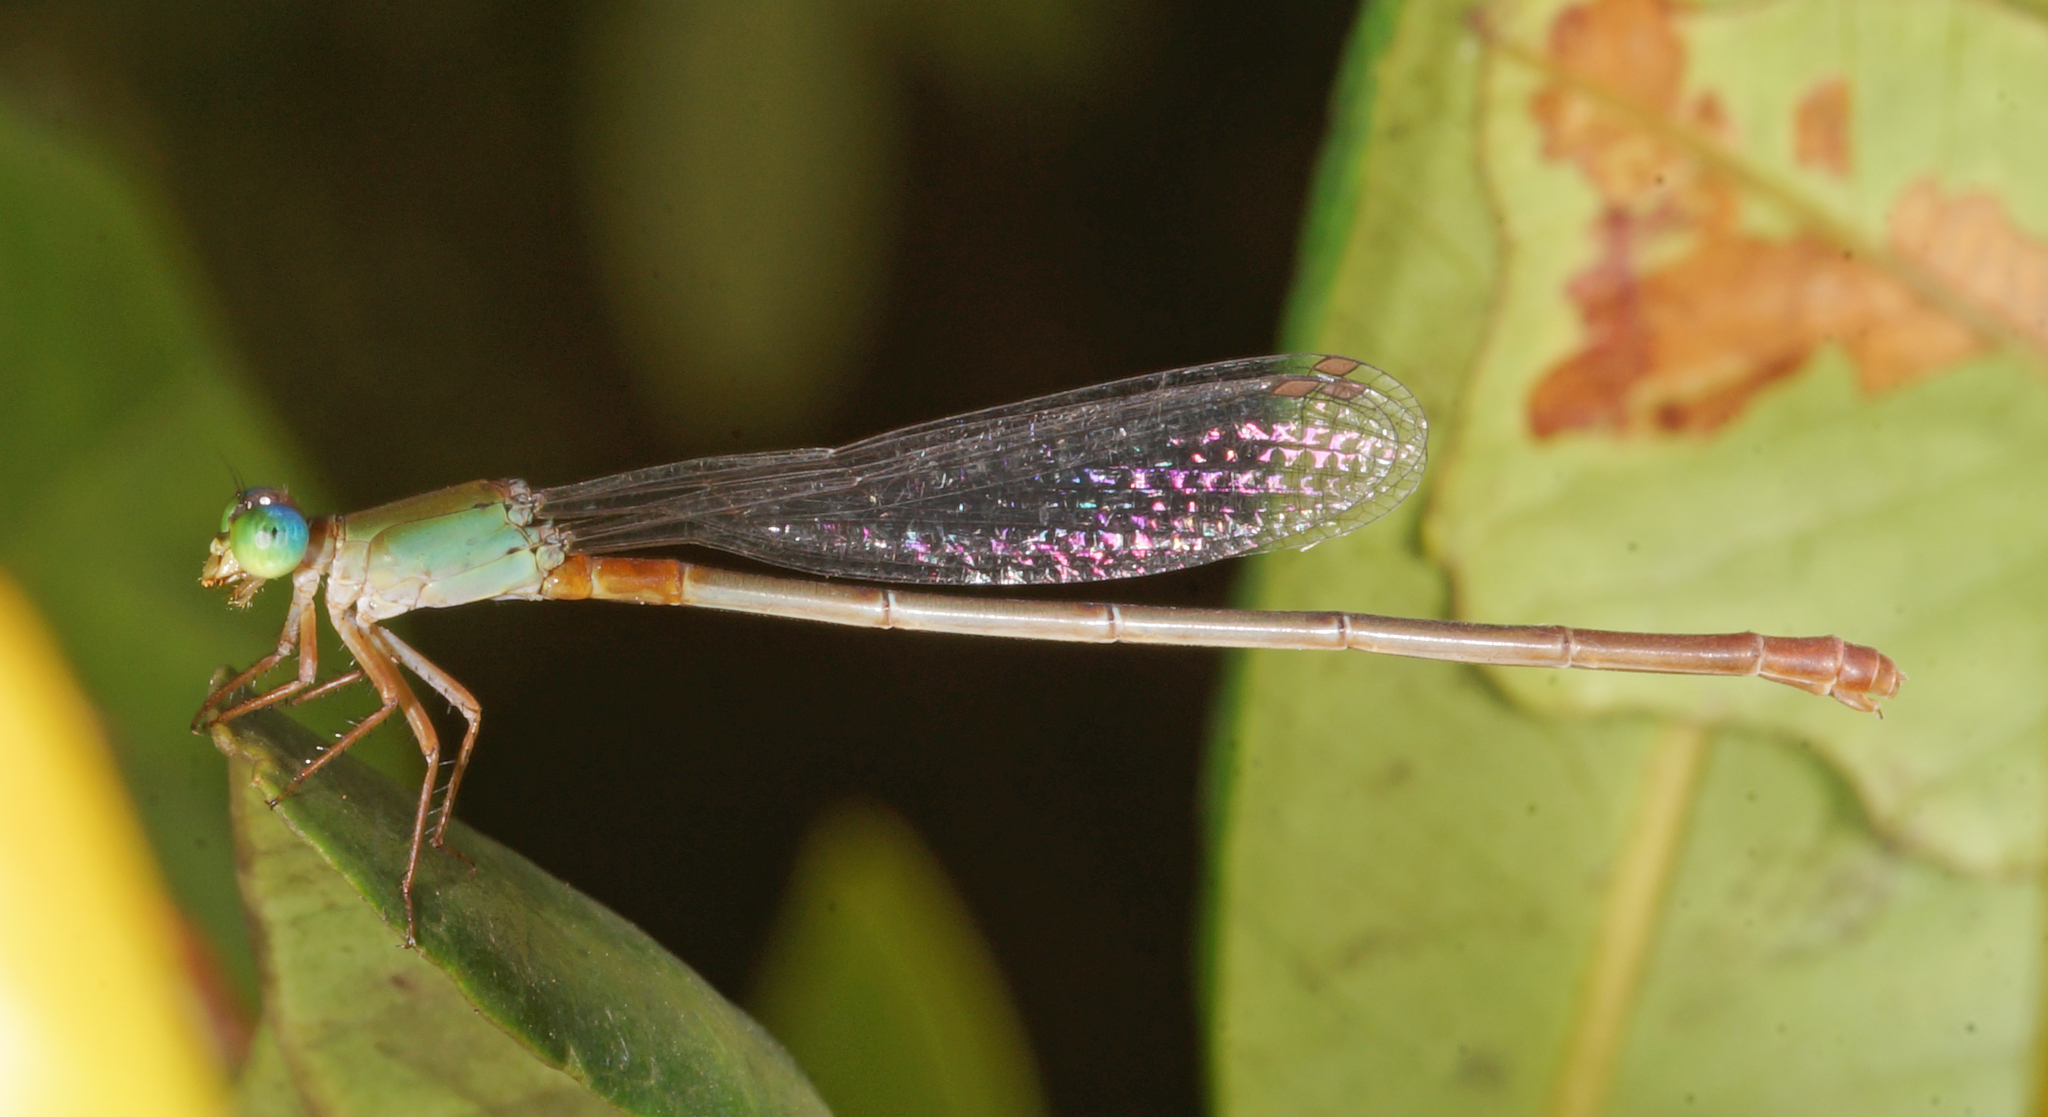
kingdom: Animalia
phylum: Arthropoda
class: Insecta
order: Odonata
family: Coenagrionidae
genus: Ceriagrion
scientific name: Ceriagrion cerinorubellum
